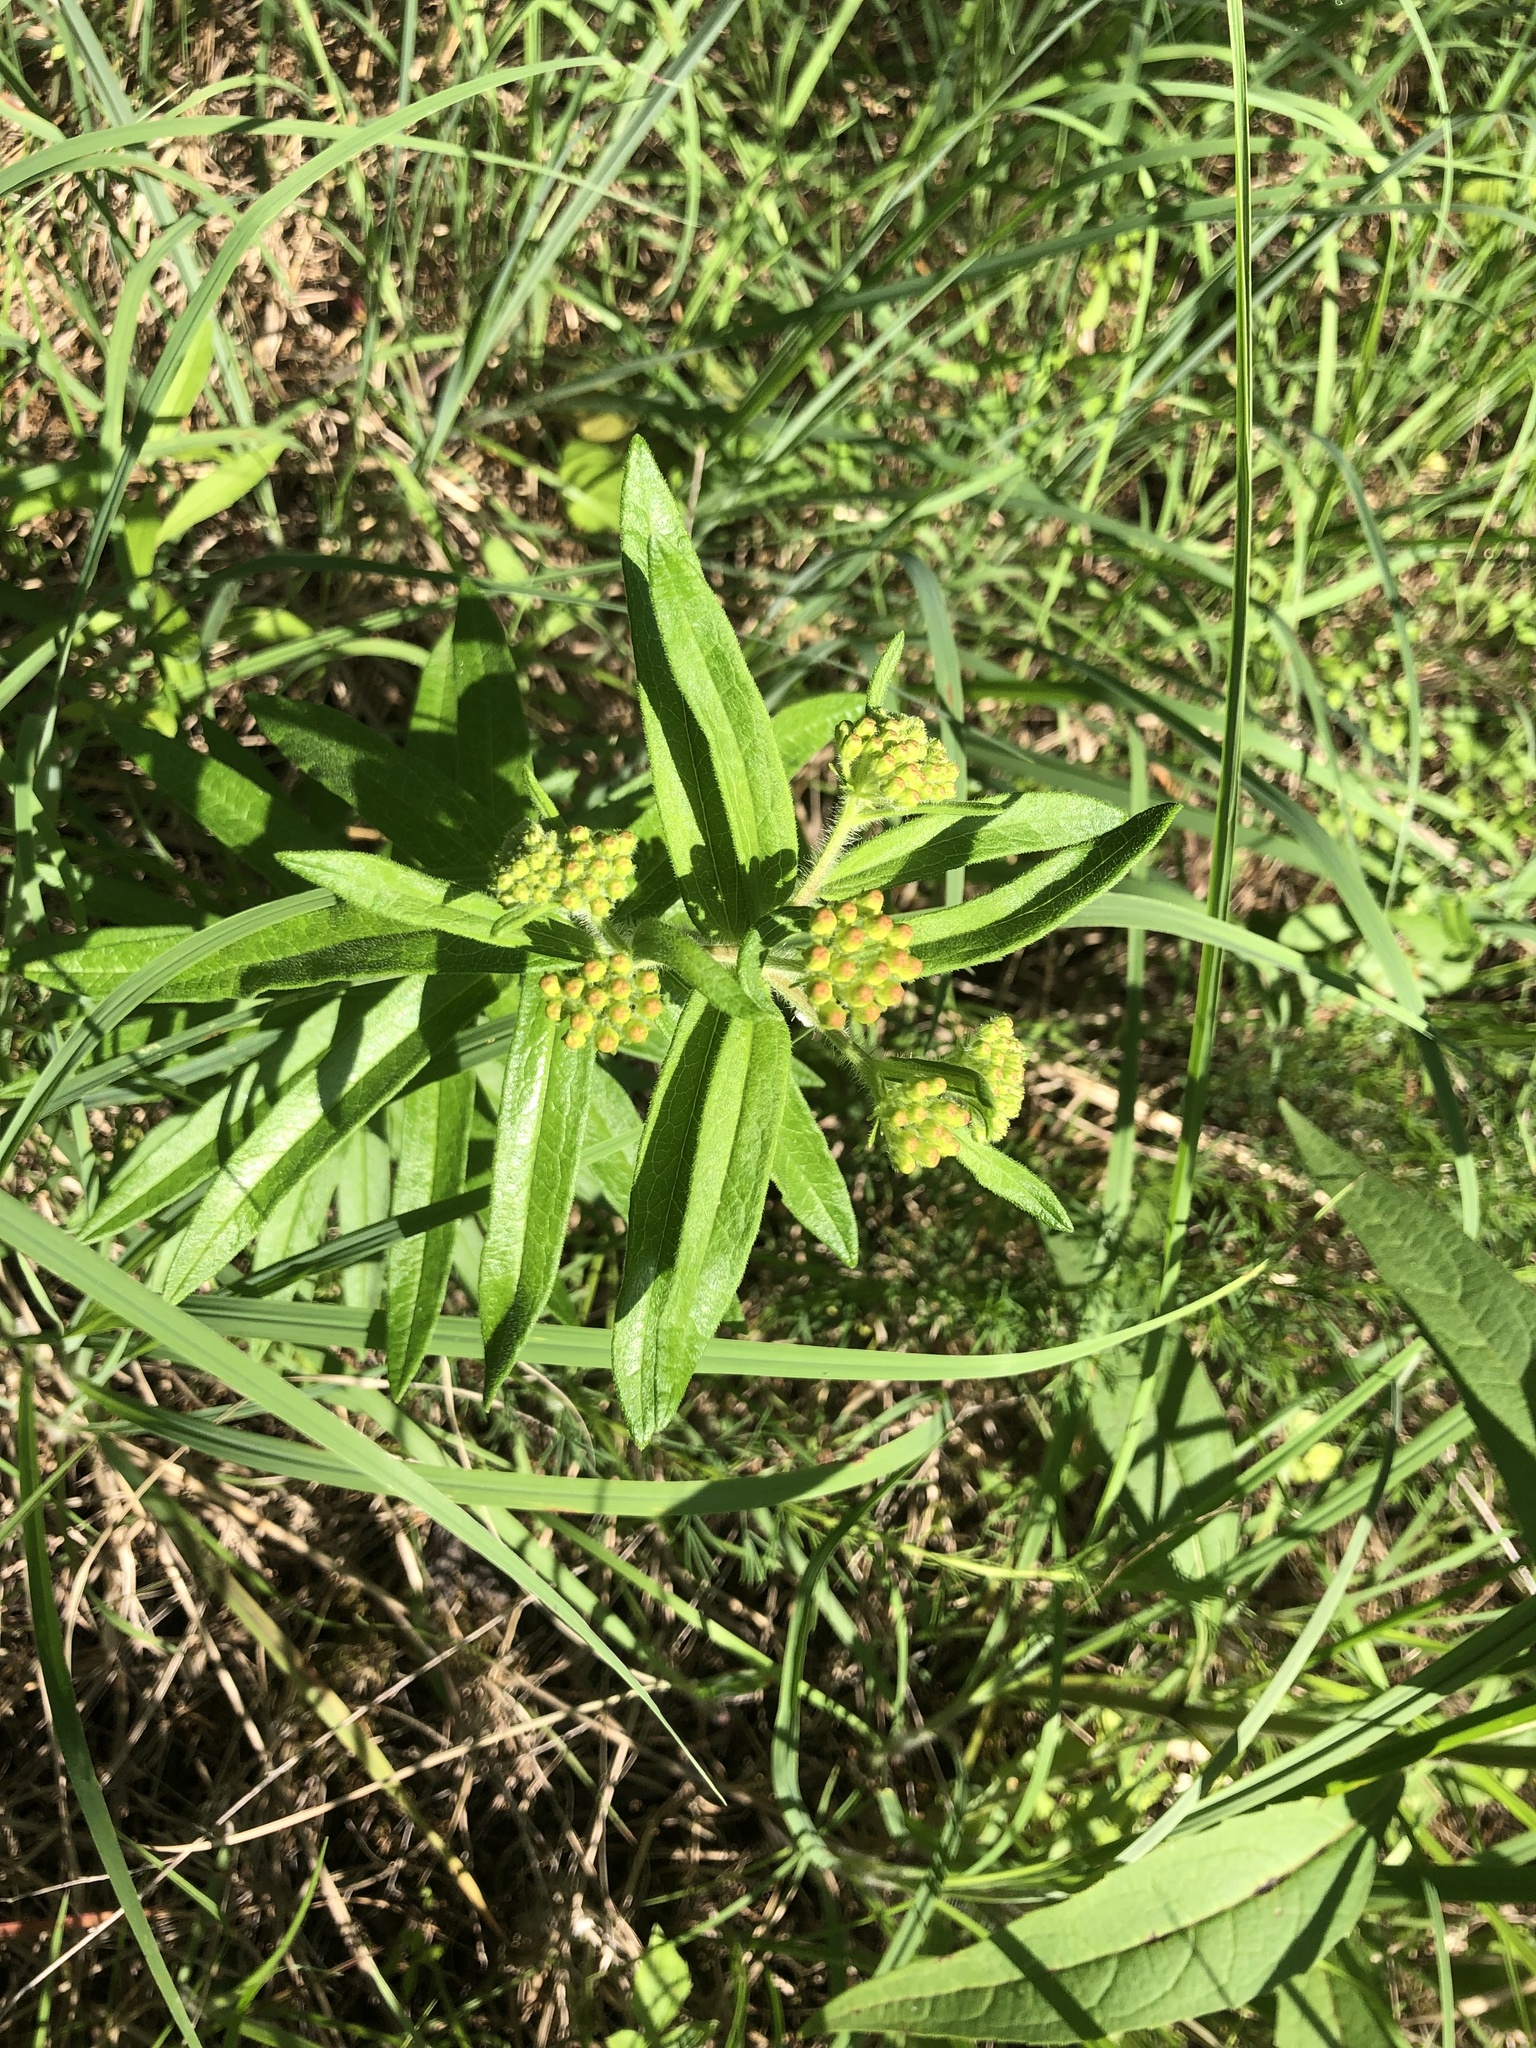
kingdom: Plantae
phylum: Tracheophyta
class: Magnoliopsida
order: Gentianales
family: Apocynaceae
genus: Asclepias
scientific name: Asclepias tuberosa
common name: Butterfly milkweed
